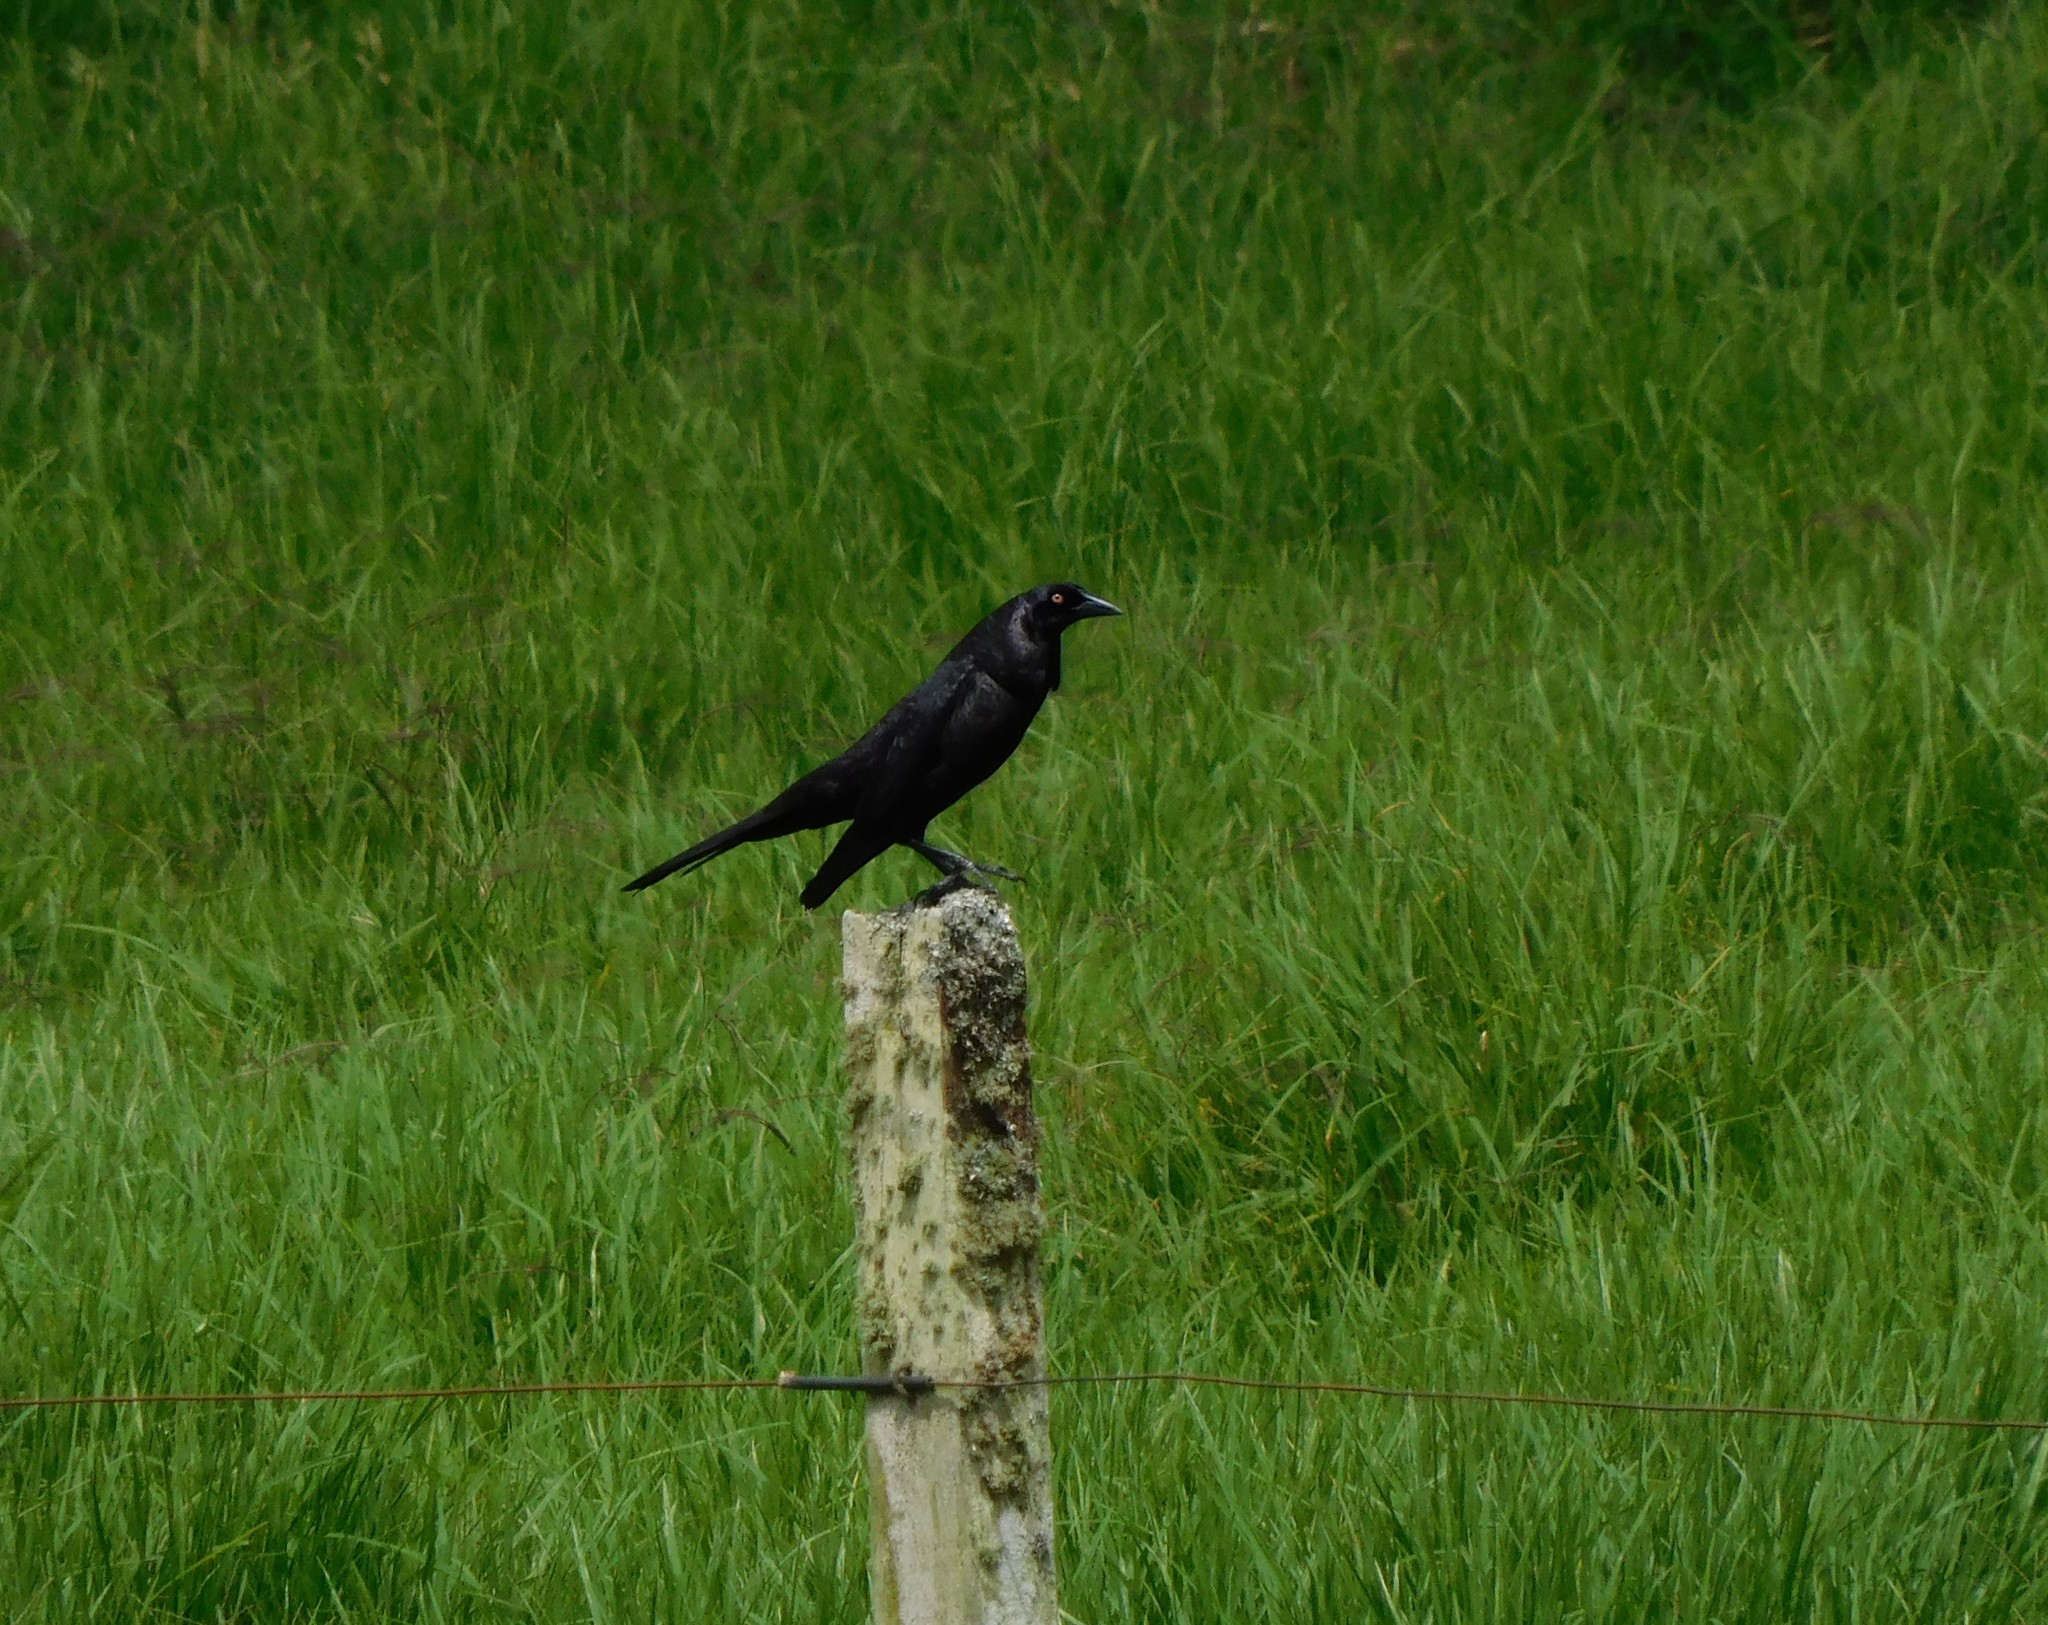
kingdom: Animalia
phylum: Chordata
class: Aves
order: Passeriformes
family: Icteridae
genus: Molothrus
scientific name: Molothrus oryzivorus
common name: Giant cowbird
